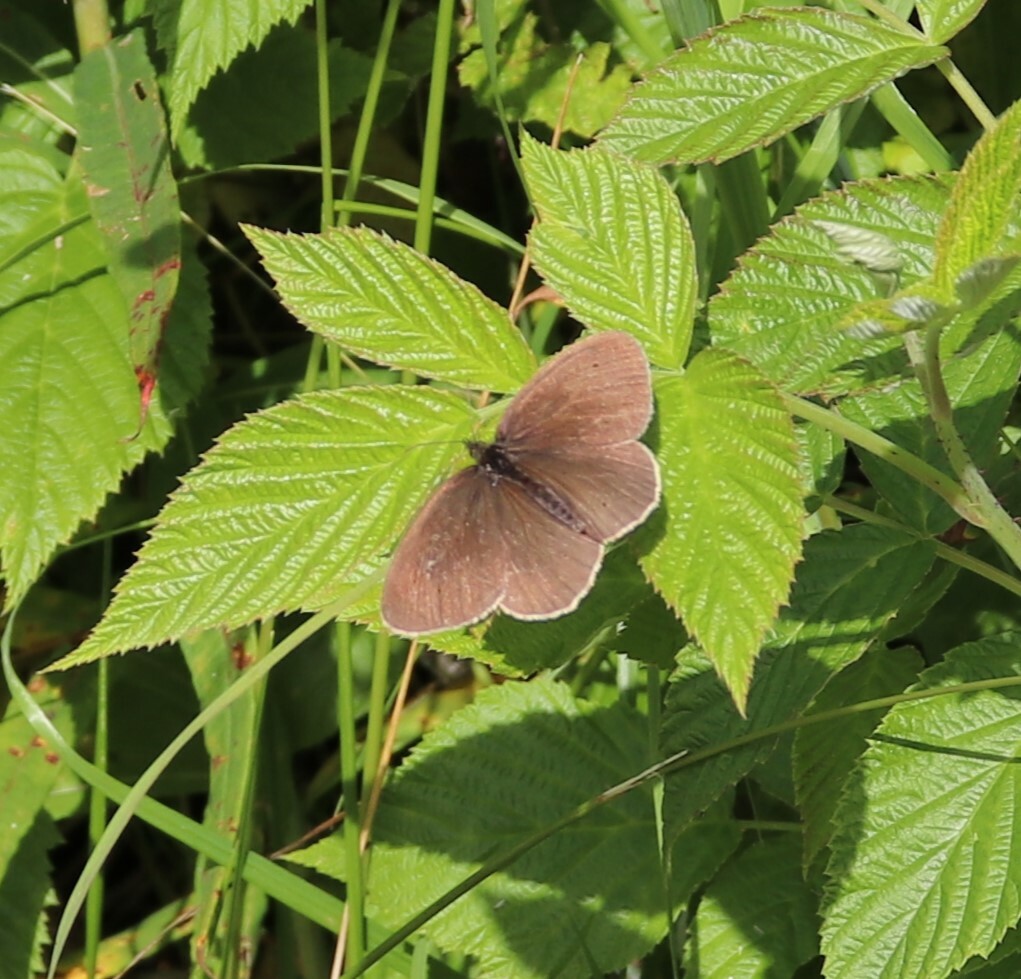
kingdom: Animalia
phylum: Arthropoda
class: Insecta
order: Lepidoptera
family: Nymphalidae
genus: Aphantopus
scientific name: Aphantopus hyperantus
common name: Ringlet
